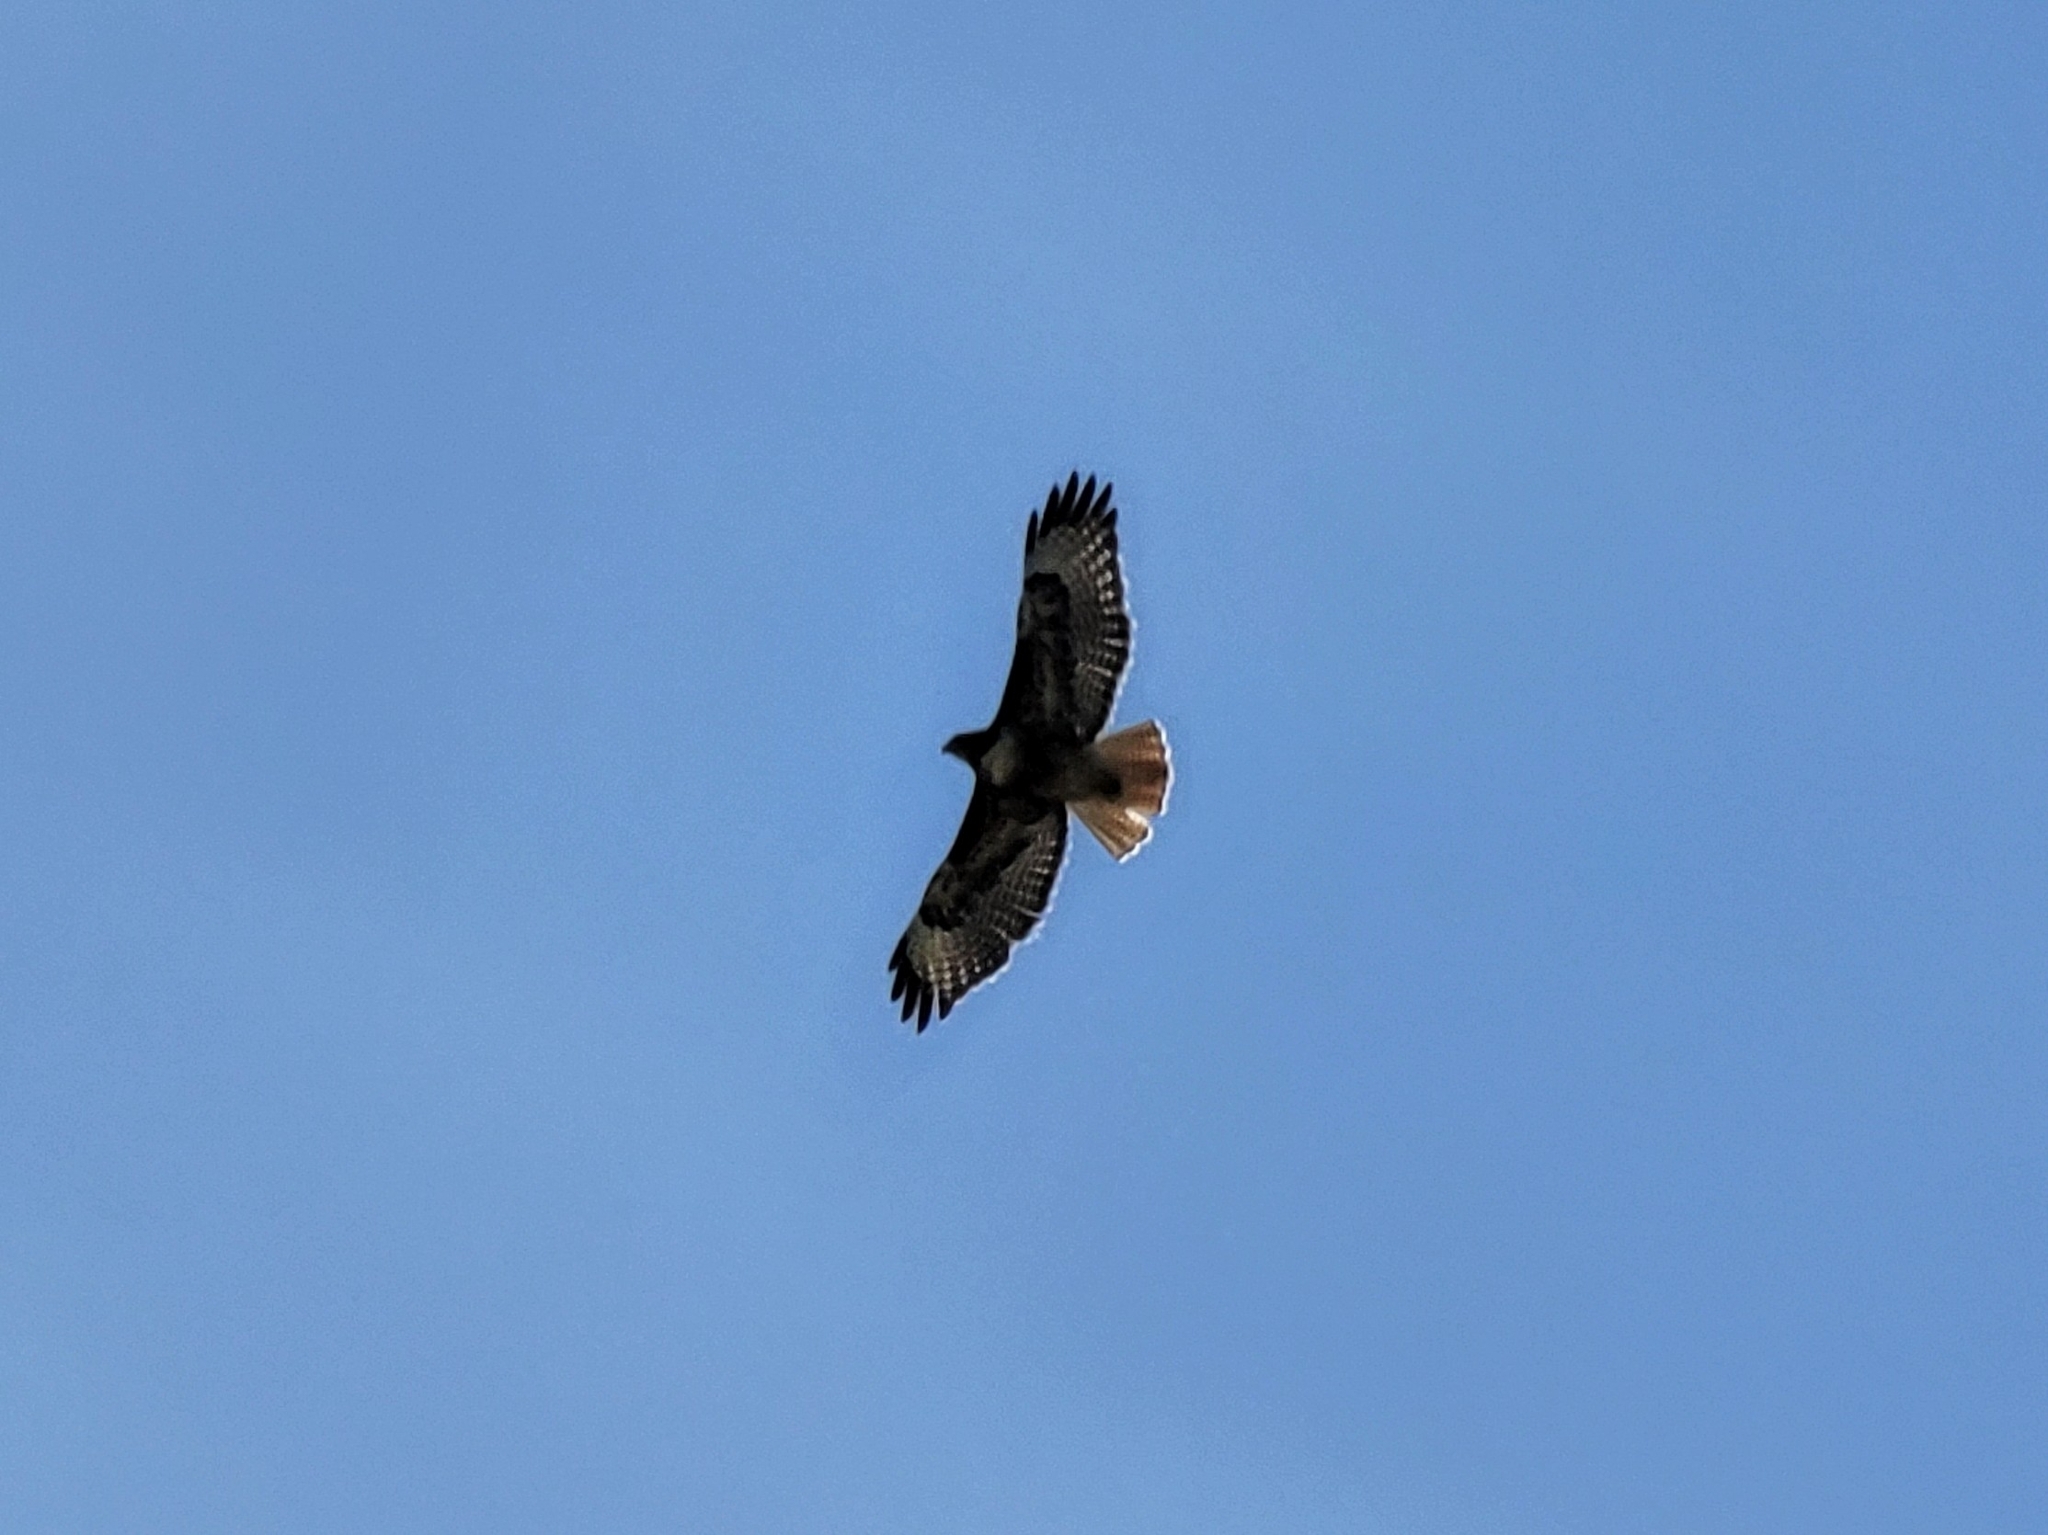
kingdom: Animalia
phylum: Chordata
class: Aves
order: Accipitriformes
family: Accipitridae
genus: Buteo
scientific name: Buteo jamaicensis
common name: Red-tailed hawk
